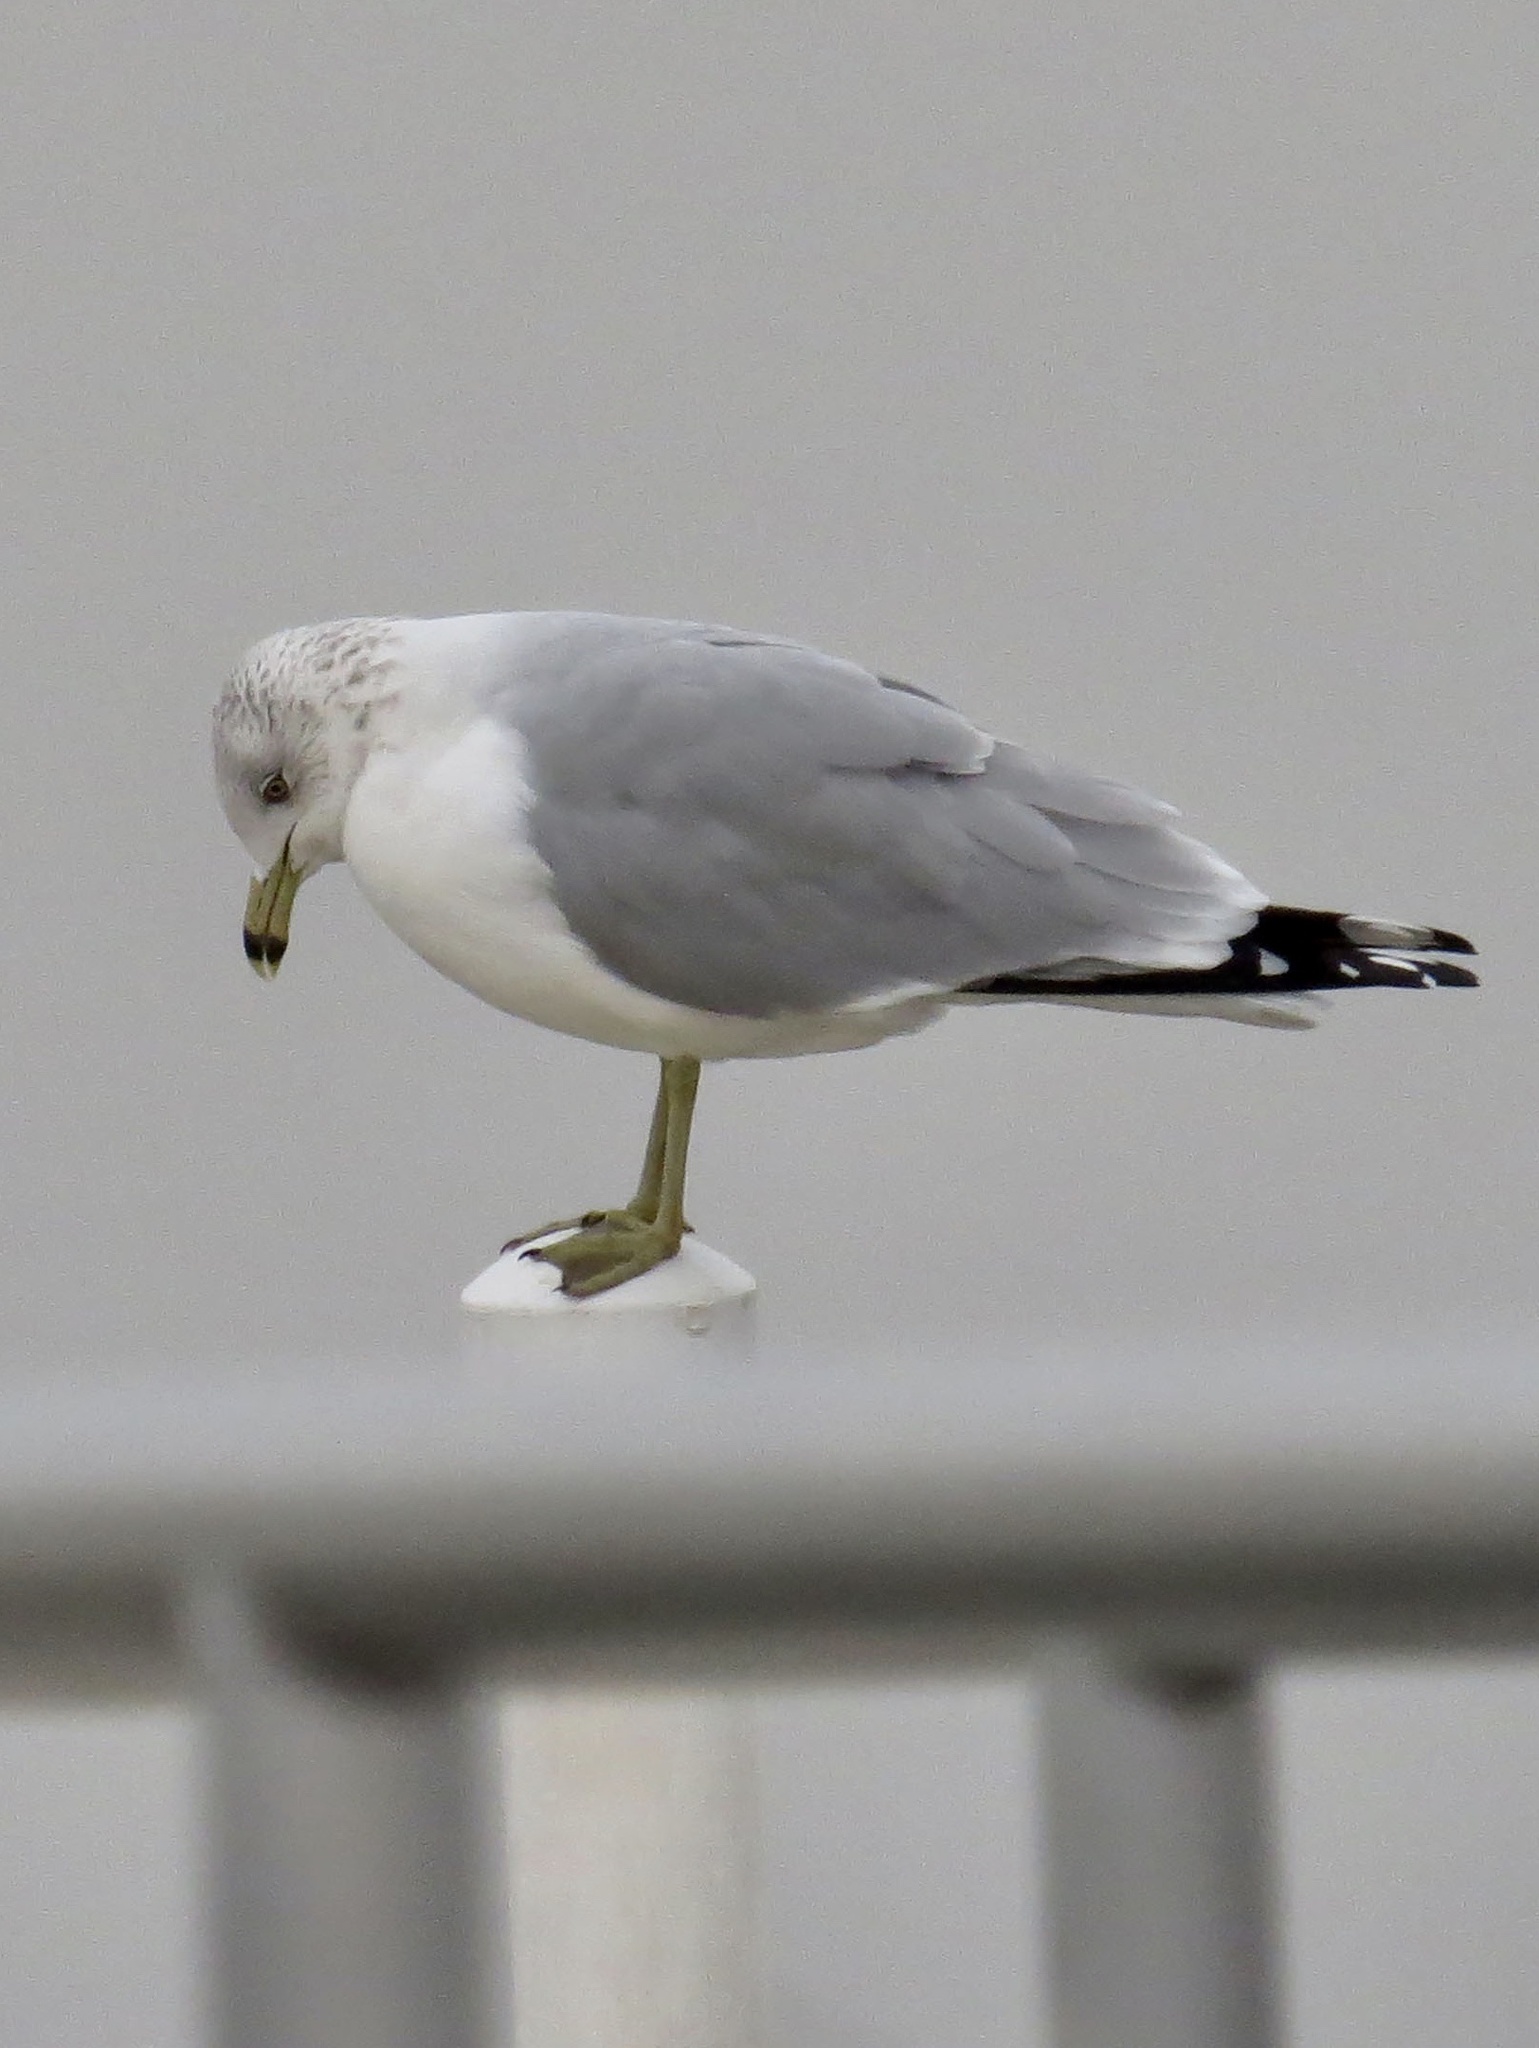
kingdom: Animalia
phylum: Chordata
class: Aves
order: Charadriiformes
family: Laridae
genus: Larus
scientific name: Larus delawarensis
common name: Ring-billed gull
